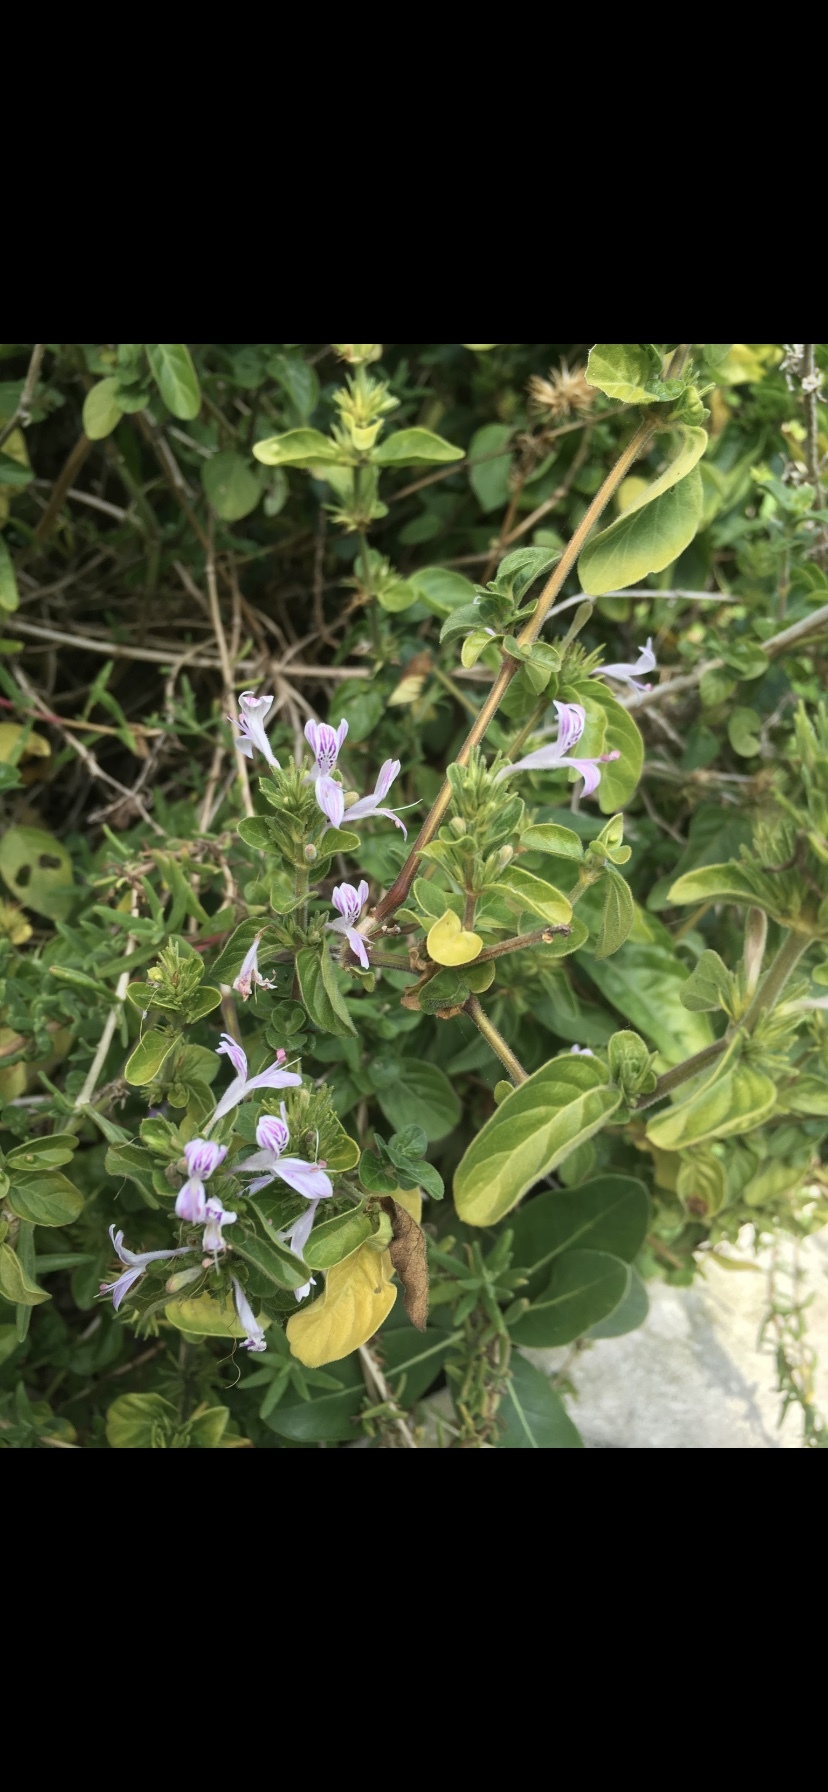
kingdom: Plantae
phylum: Tracheophyta
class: Magnoliopsida
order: Lamiales
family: Acanthaceae
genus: Hypoestes
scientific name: Hypoestes aristata
